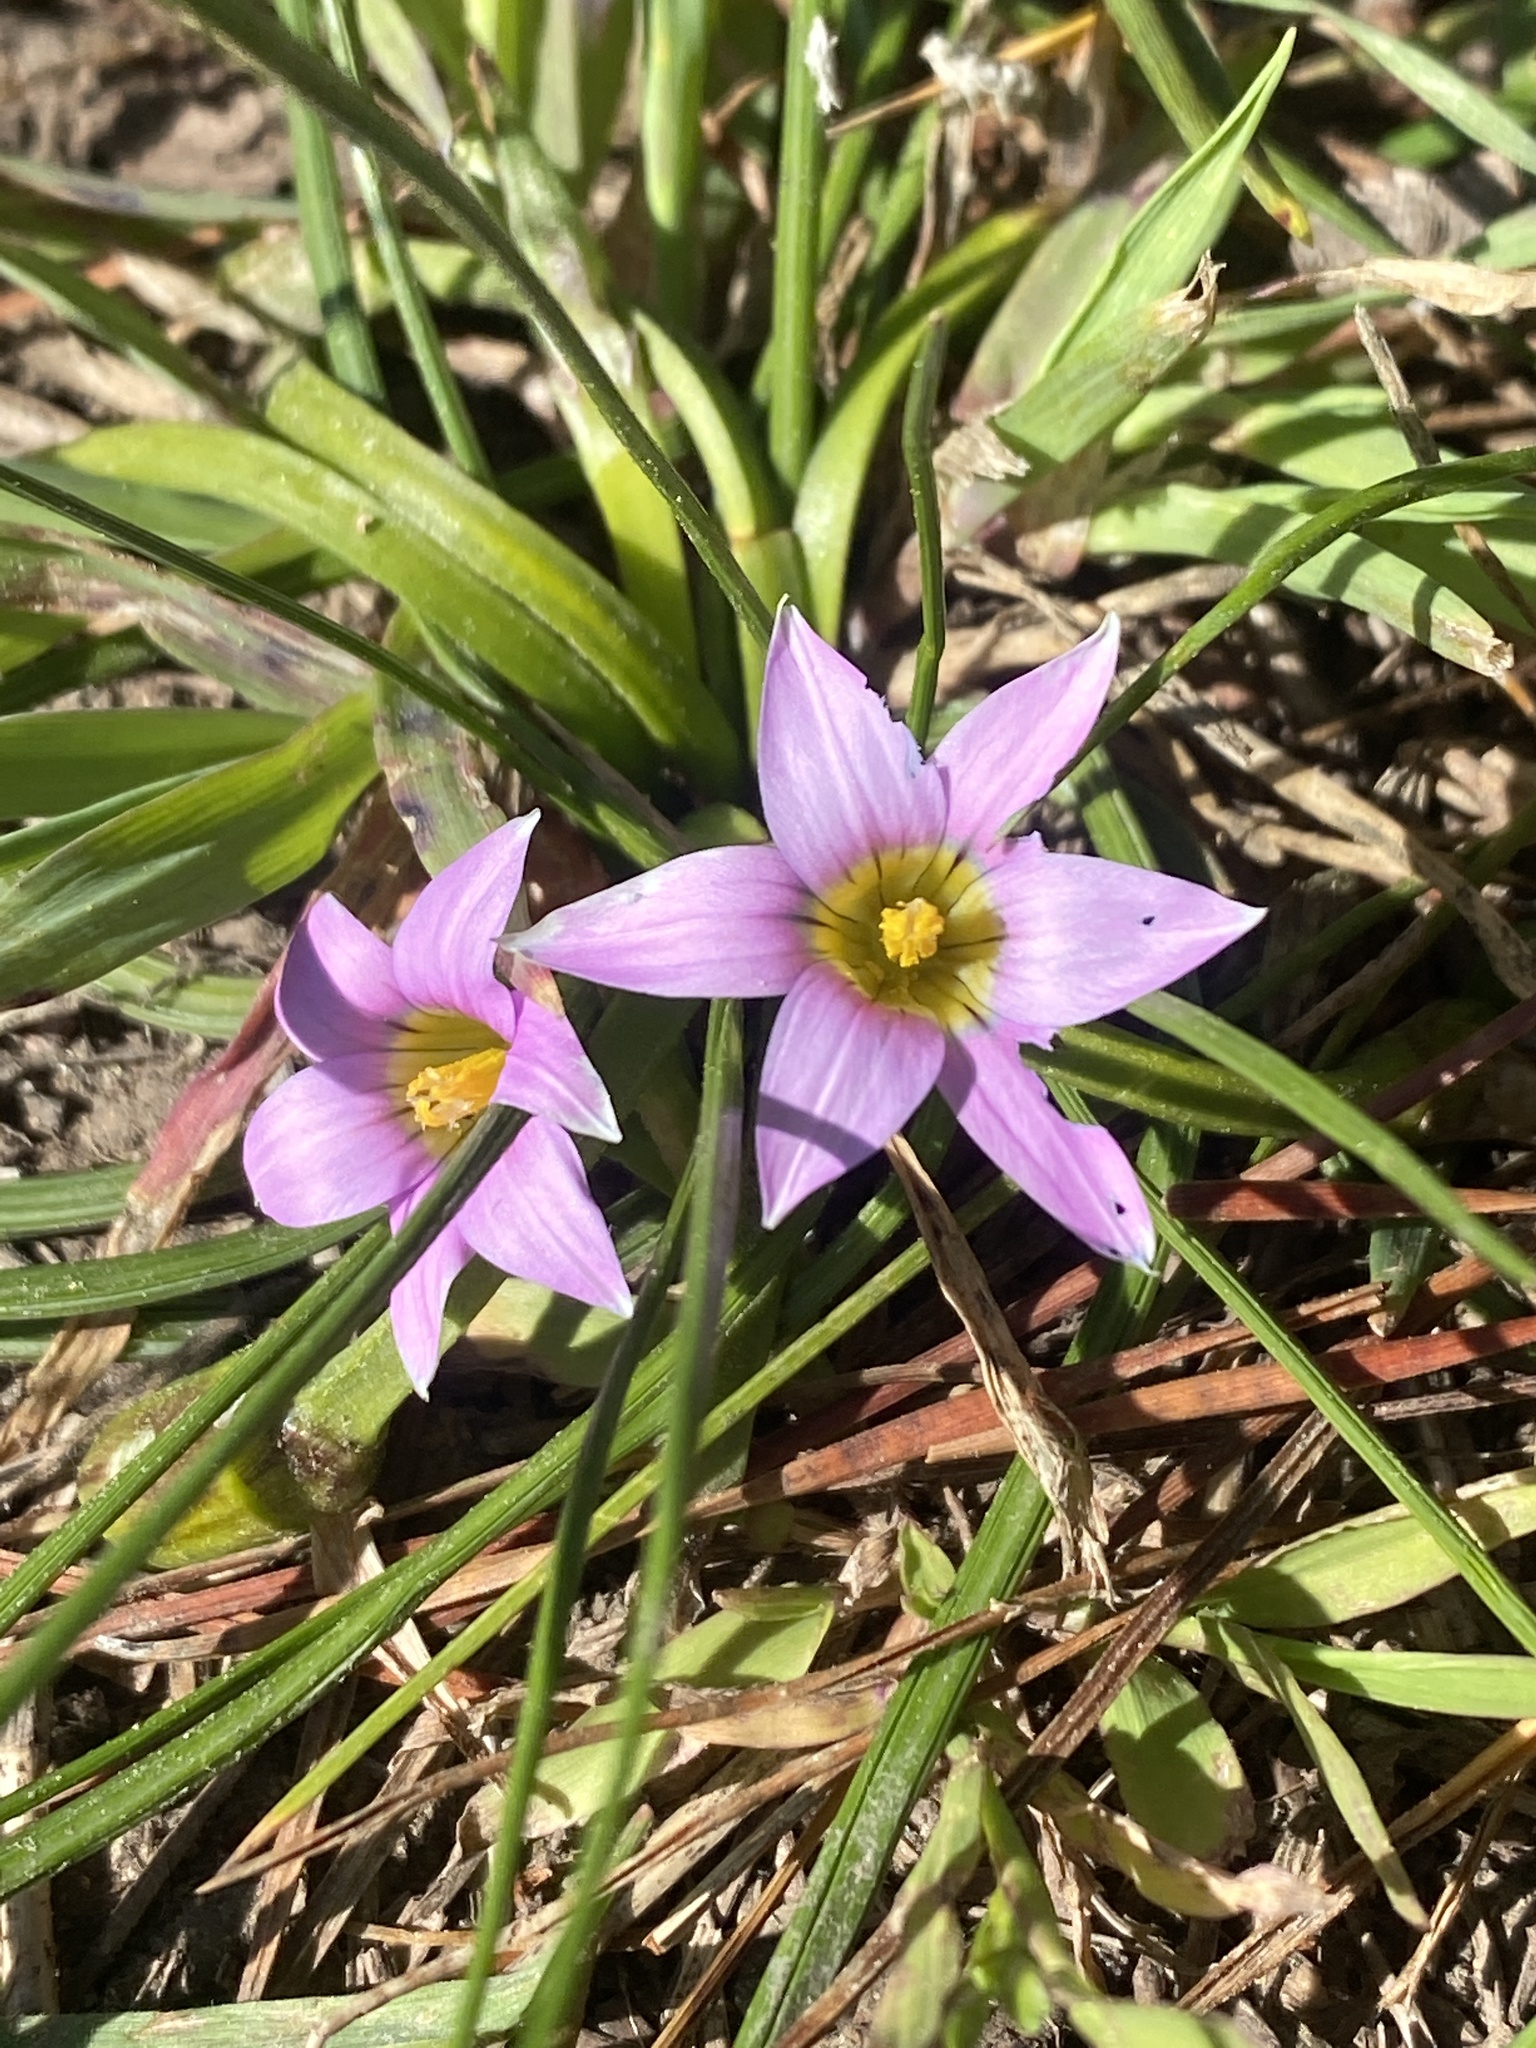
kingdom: Plantae
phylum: Tracheophyta
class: Liliopsida
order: Asparagales
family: Iridaceae
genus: Romulea
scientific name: Romulea rosea
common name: Oniongrass
